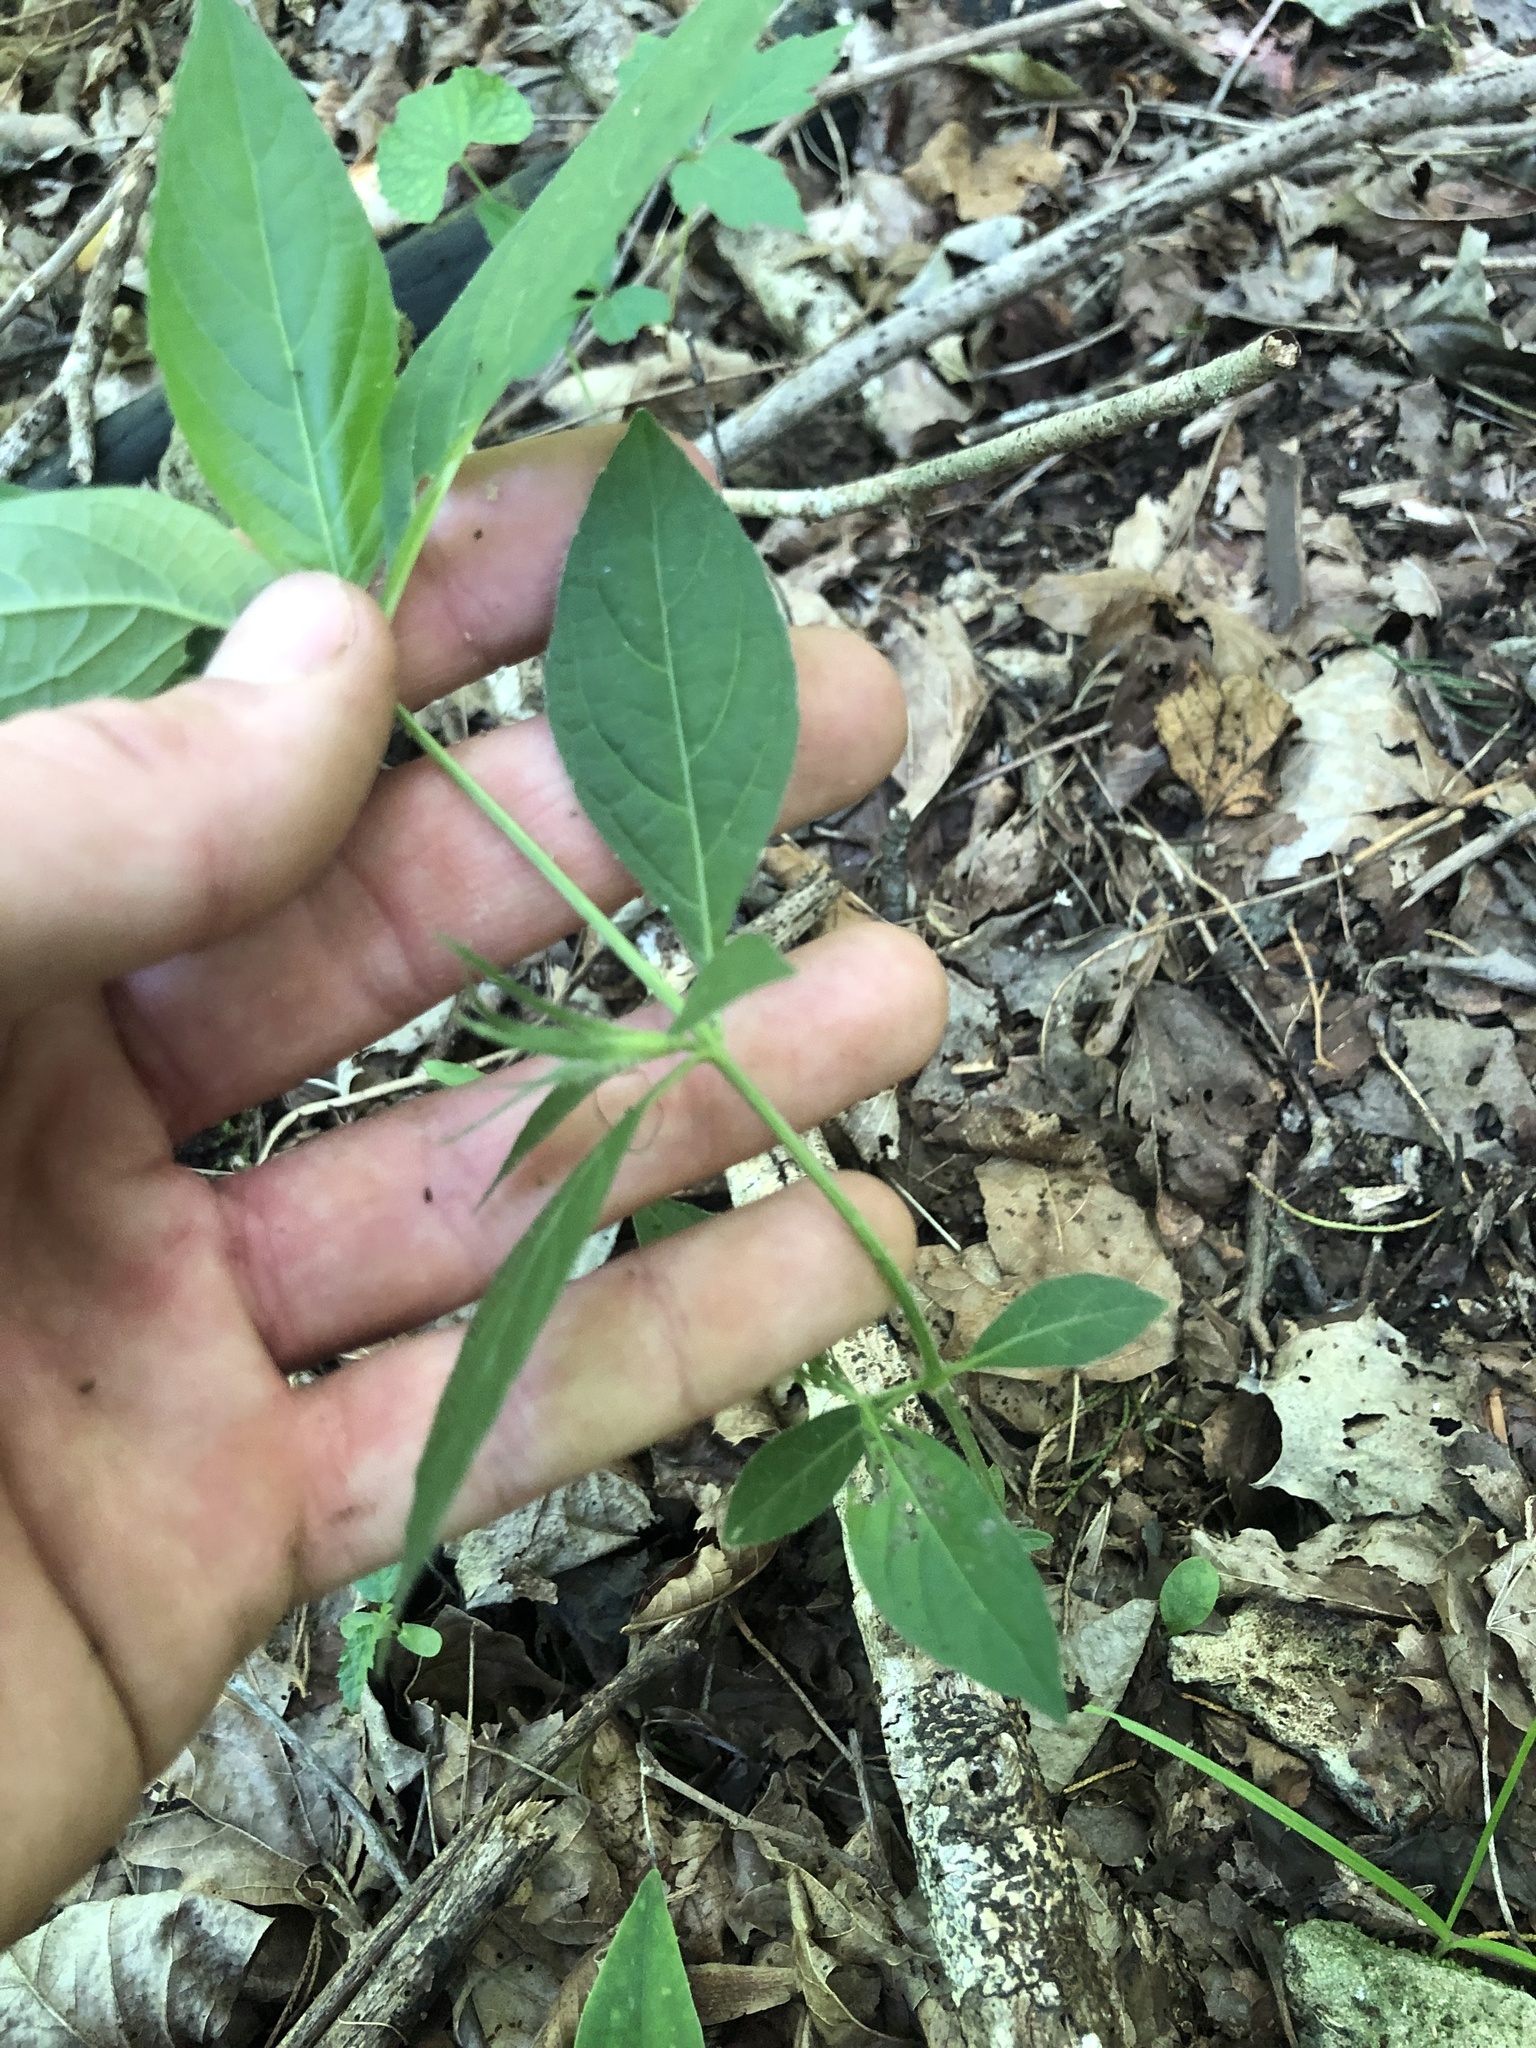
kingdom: Plantae
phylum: Tracheophyta
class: Magnoliopsida
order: Lamiales
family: Acanthaceae
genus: Ruellia
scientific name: Ruellia purshiana
